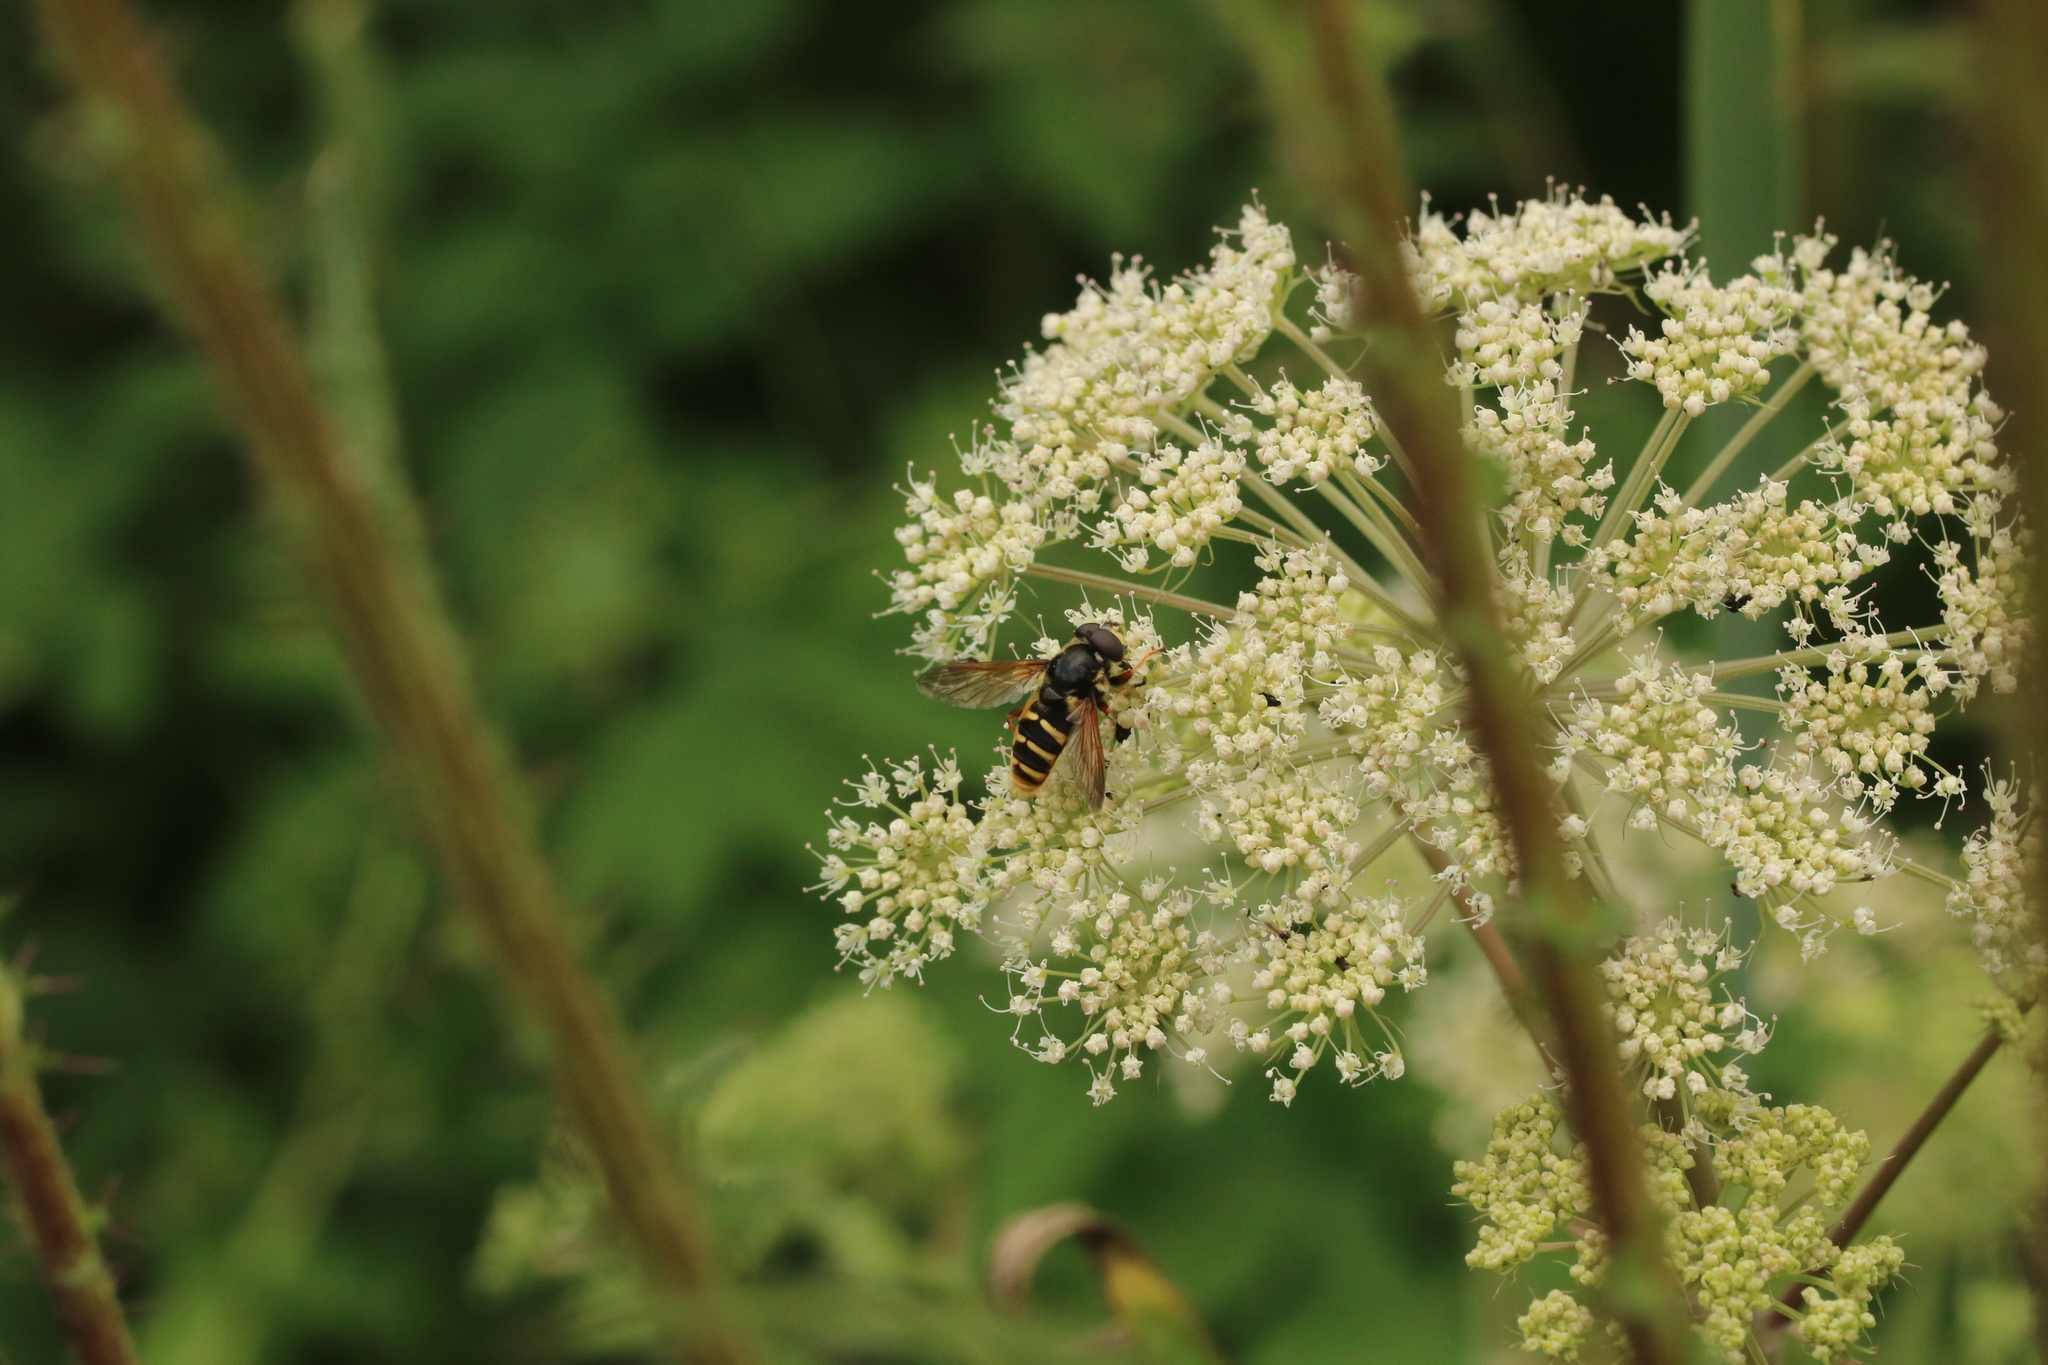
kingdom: Animalia
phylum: Arthropoda
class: Insecta
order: Diptera
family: Syrphidae
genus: Sericomyia
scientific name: Sericomyia silentis
